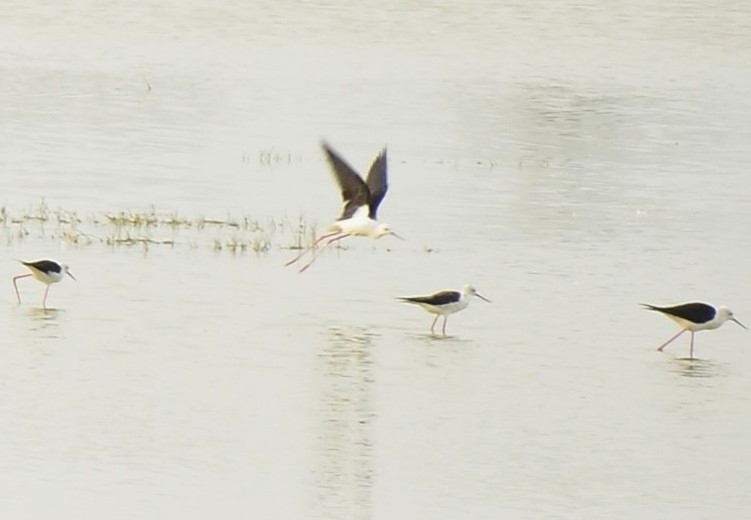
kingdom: Animalia
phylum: Chordata
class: Aves
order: Charadriiformes
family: Recurvirostridae
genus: Himantopus
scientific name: Himantopus himantopus
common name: Black-winged stilt
